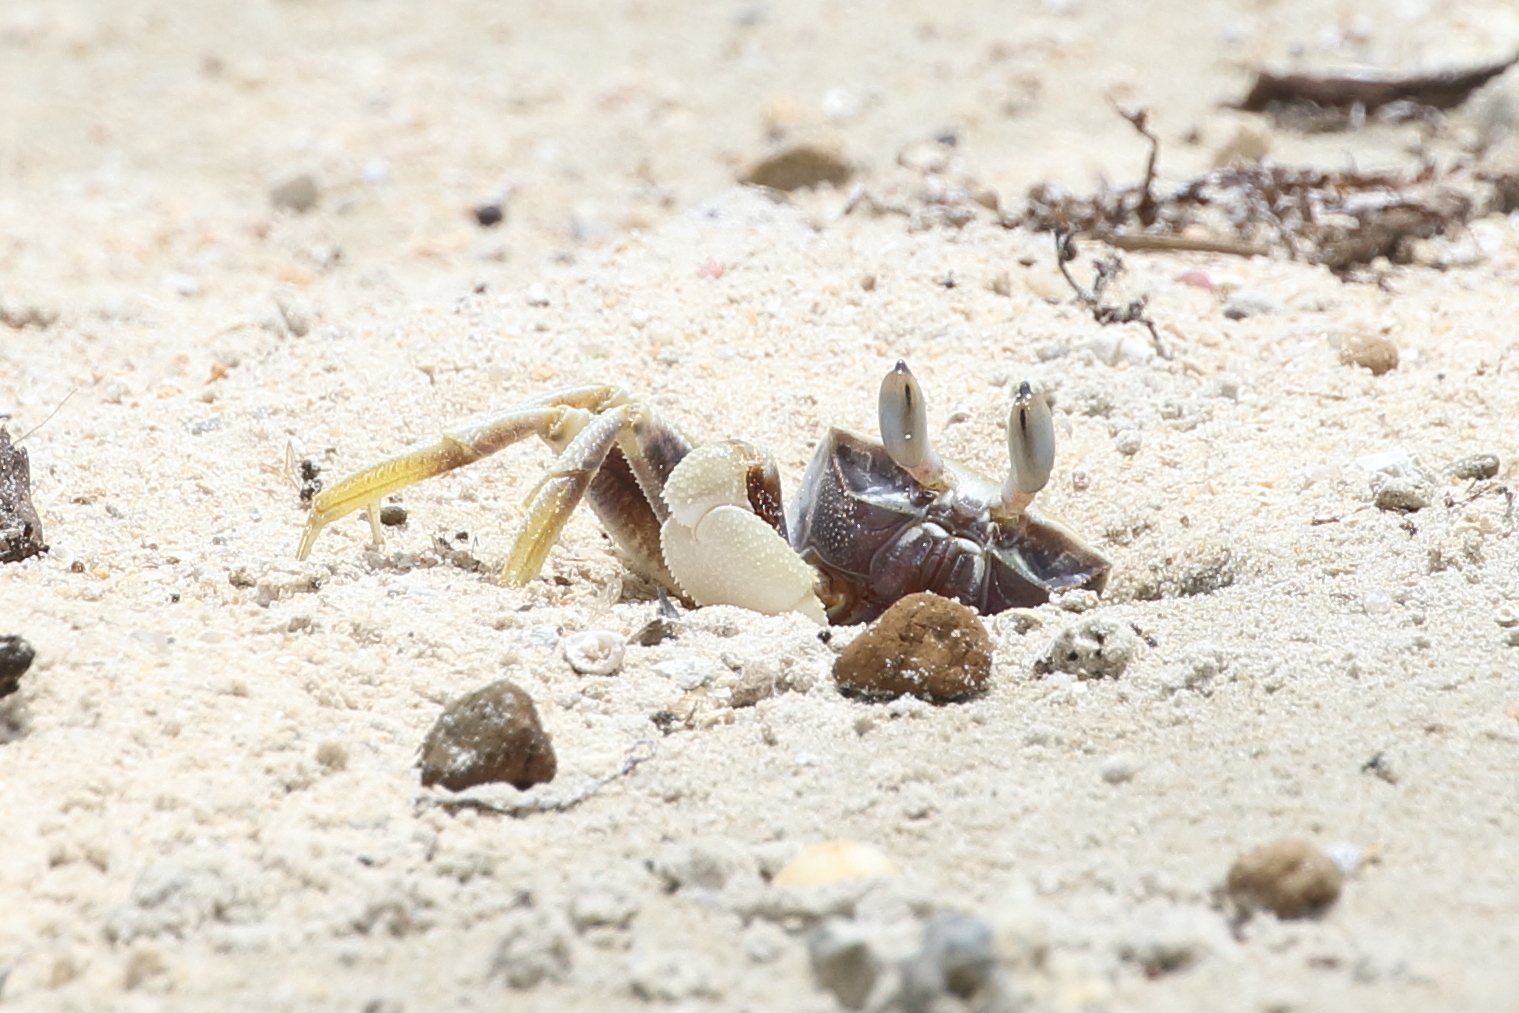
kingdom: Animalia
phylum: Arthropoda
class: Malacostraca
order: Decapoda
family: Ocypodidae
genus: Ocypode
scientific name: Ocypode ceratophthalmus
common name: Indo-pacific ghost crab
